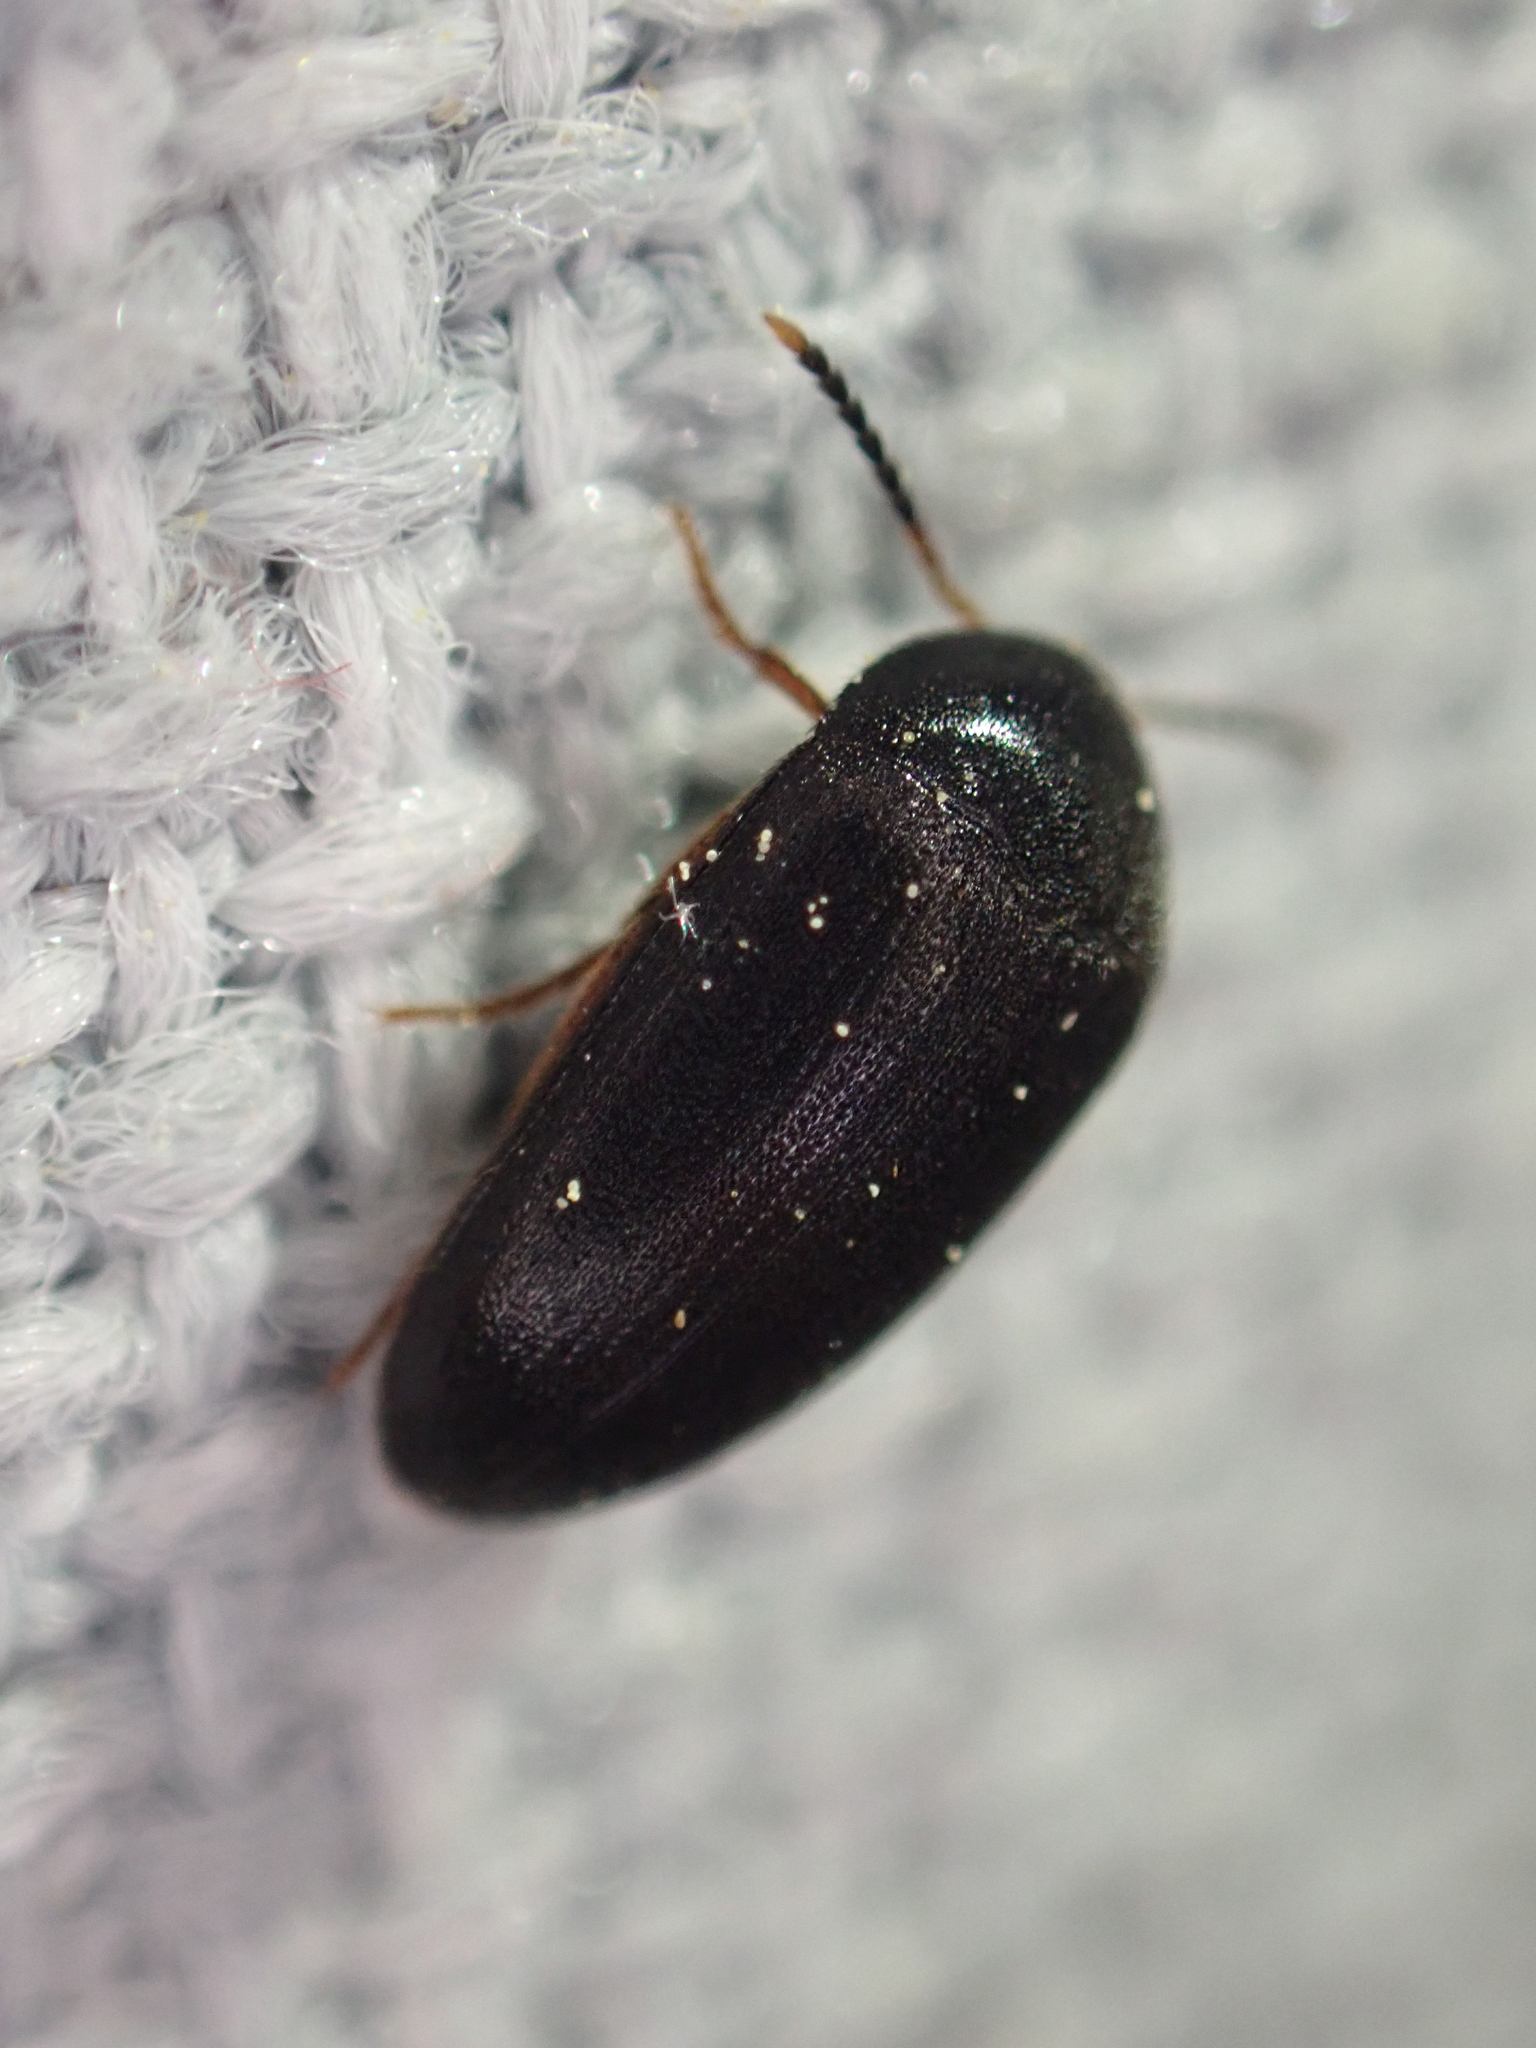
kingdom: Animalia
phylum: Arthropoda
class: Insecta
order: Coleoptera
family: Tetratomidae
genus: Eustrophopsis
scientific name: Eustrophopsis bicolor
